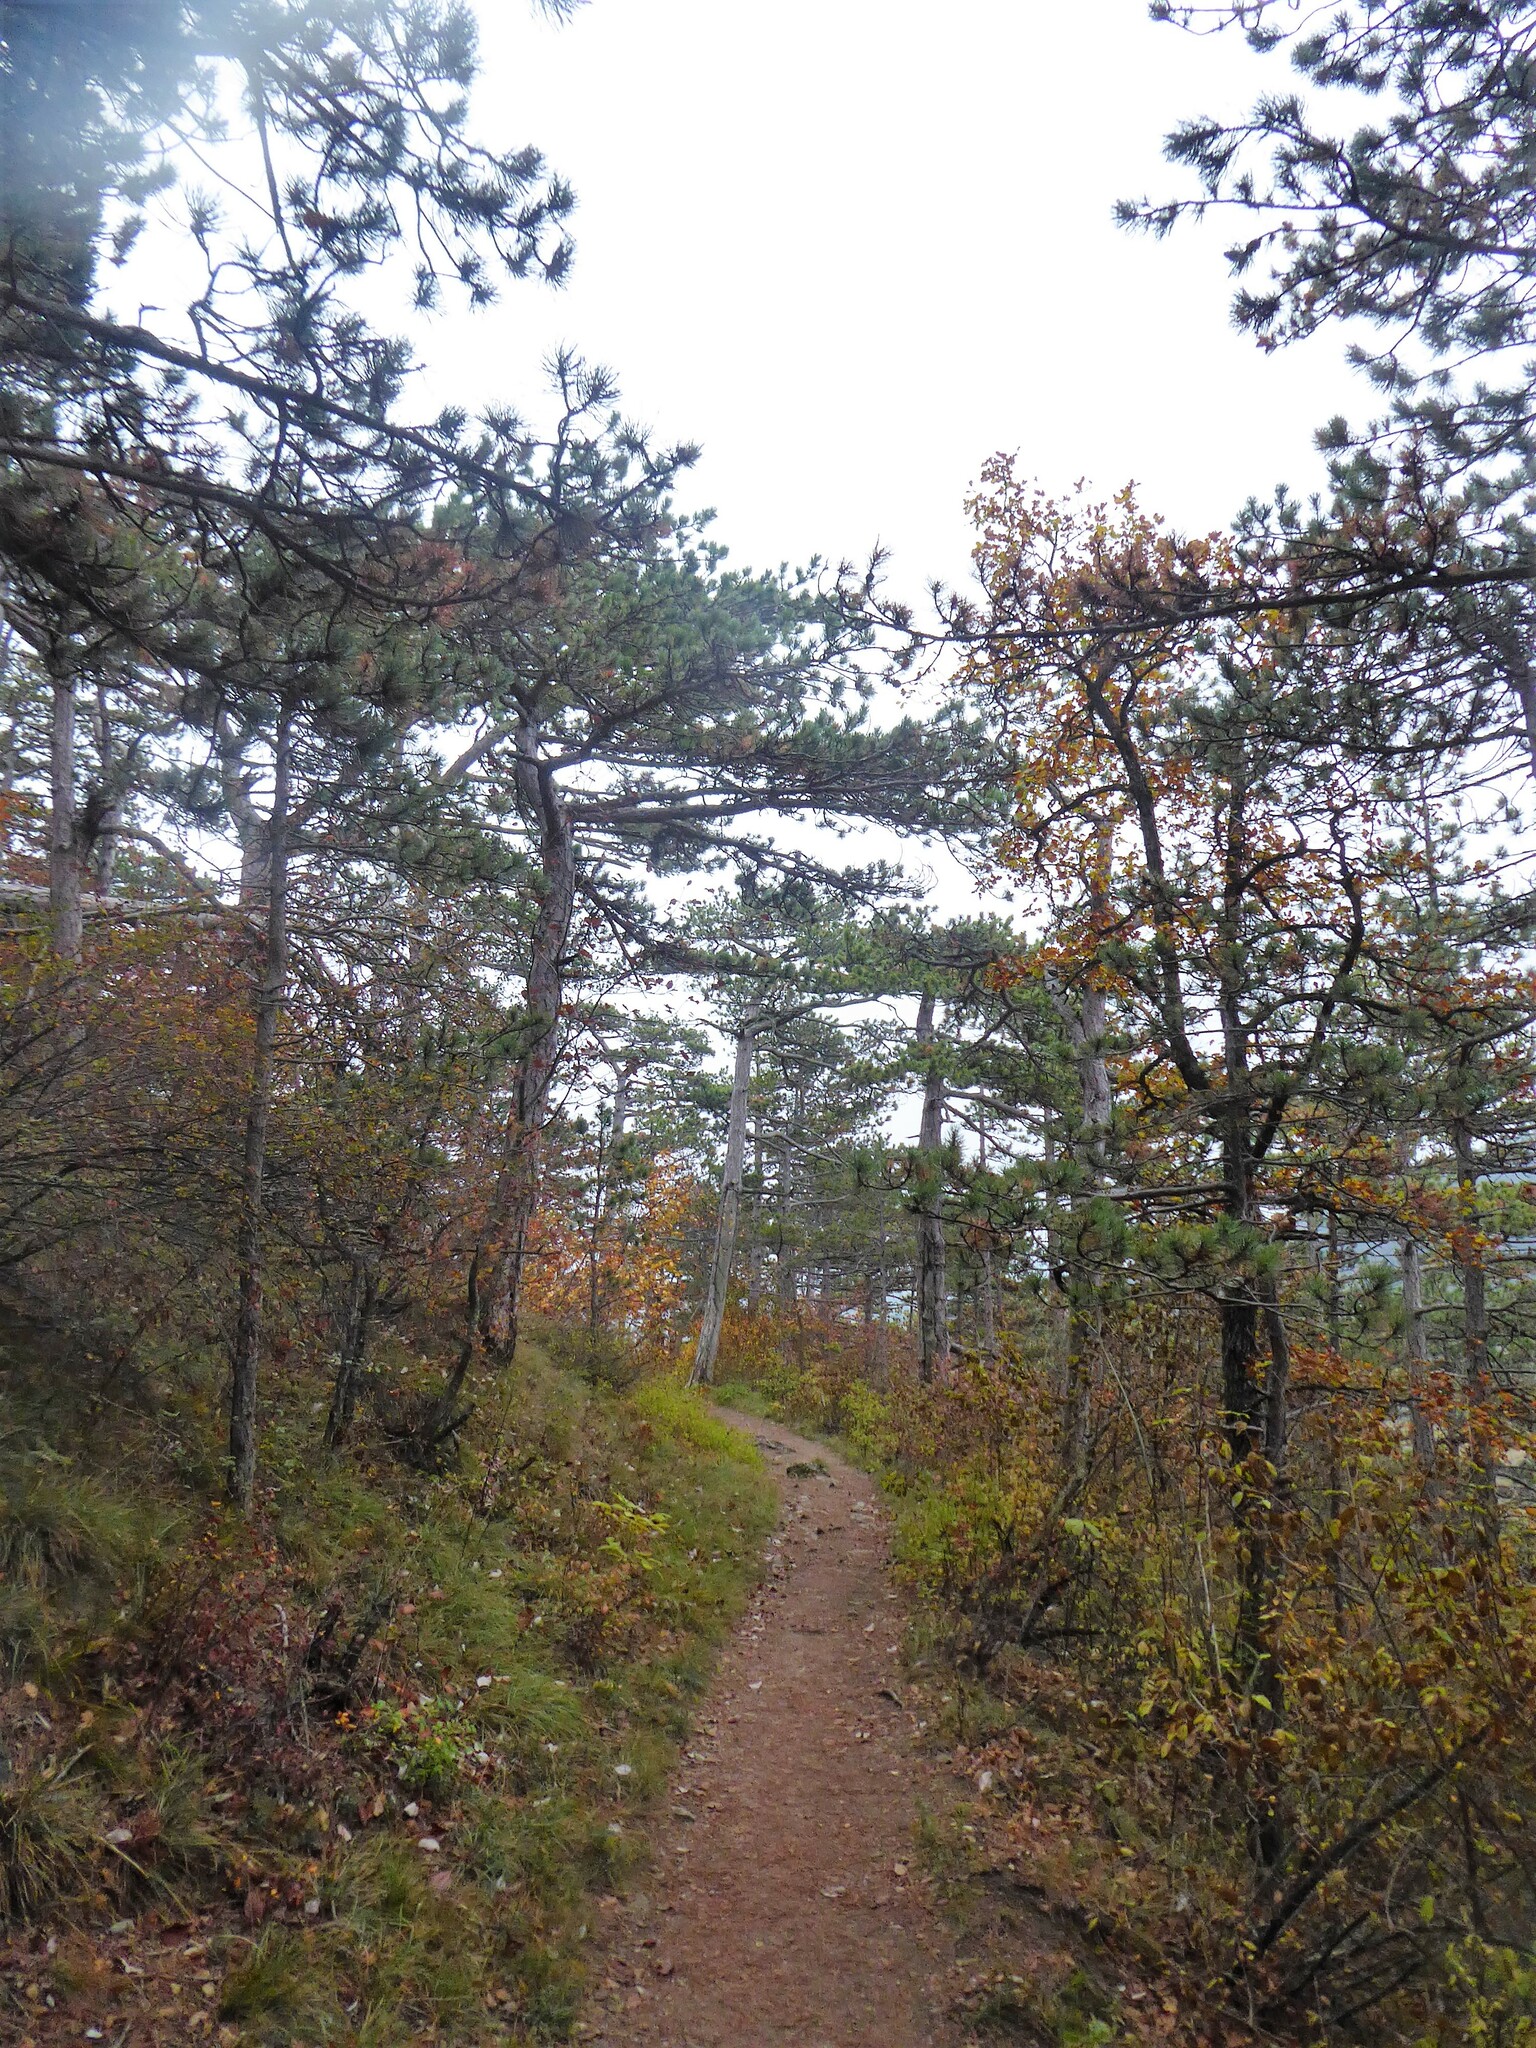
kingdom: Plantae
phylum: Tracheophyta
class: Pinopsida
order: Pinales
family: Pinaceae
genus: Pinus
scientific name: Pinus nigra
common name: Austrian pine
